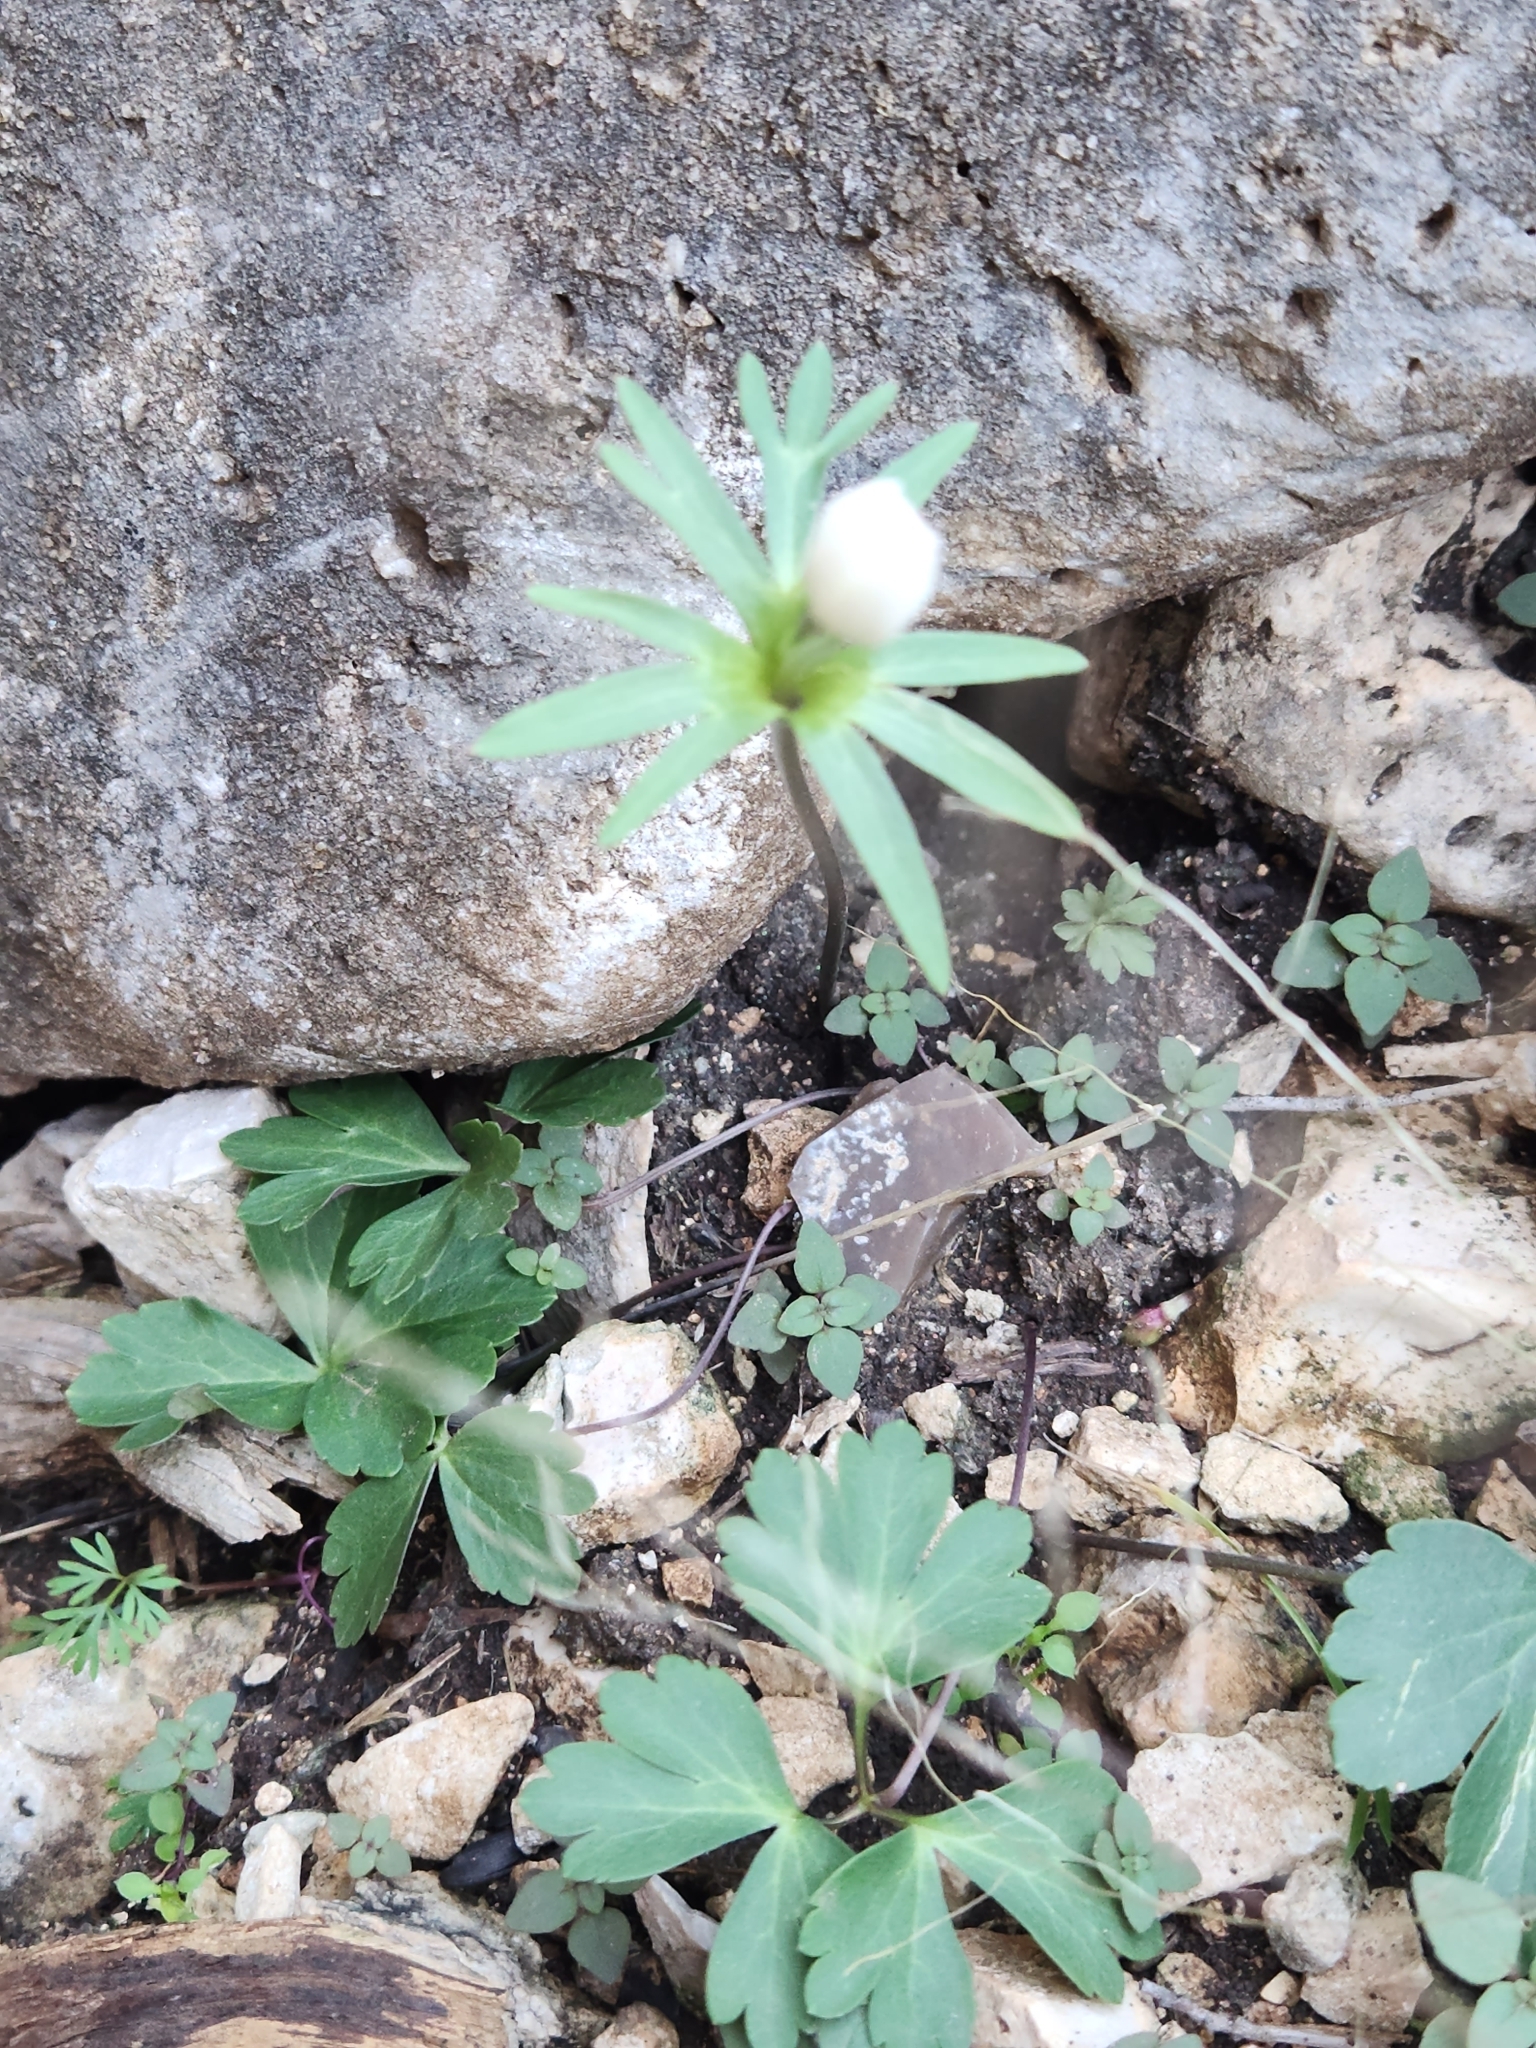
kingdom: Plantae
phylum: Tracheophyta
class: Magnoliopsida
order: Ranunculales
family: Ranunculaceae
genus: Anemone
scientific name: Anemone edwardsiana
